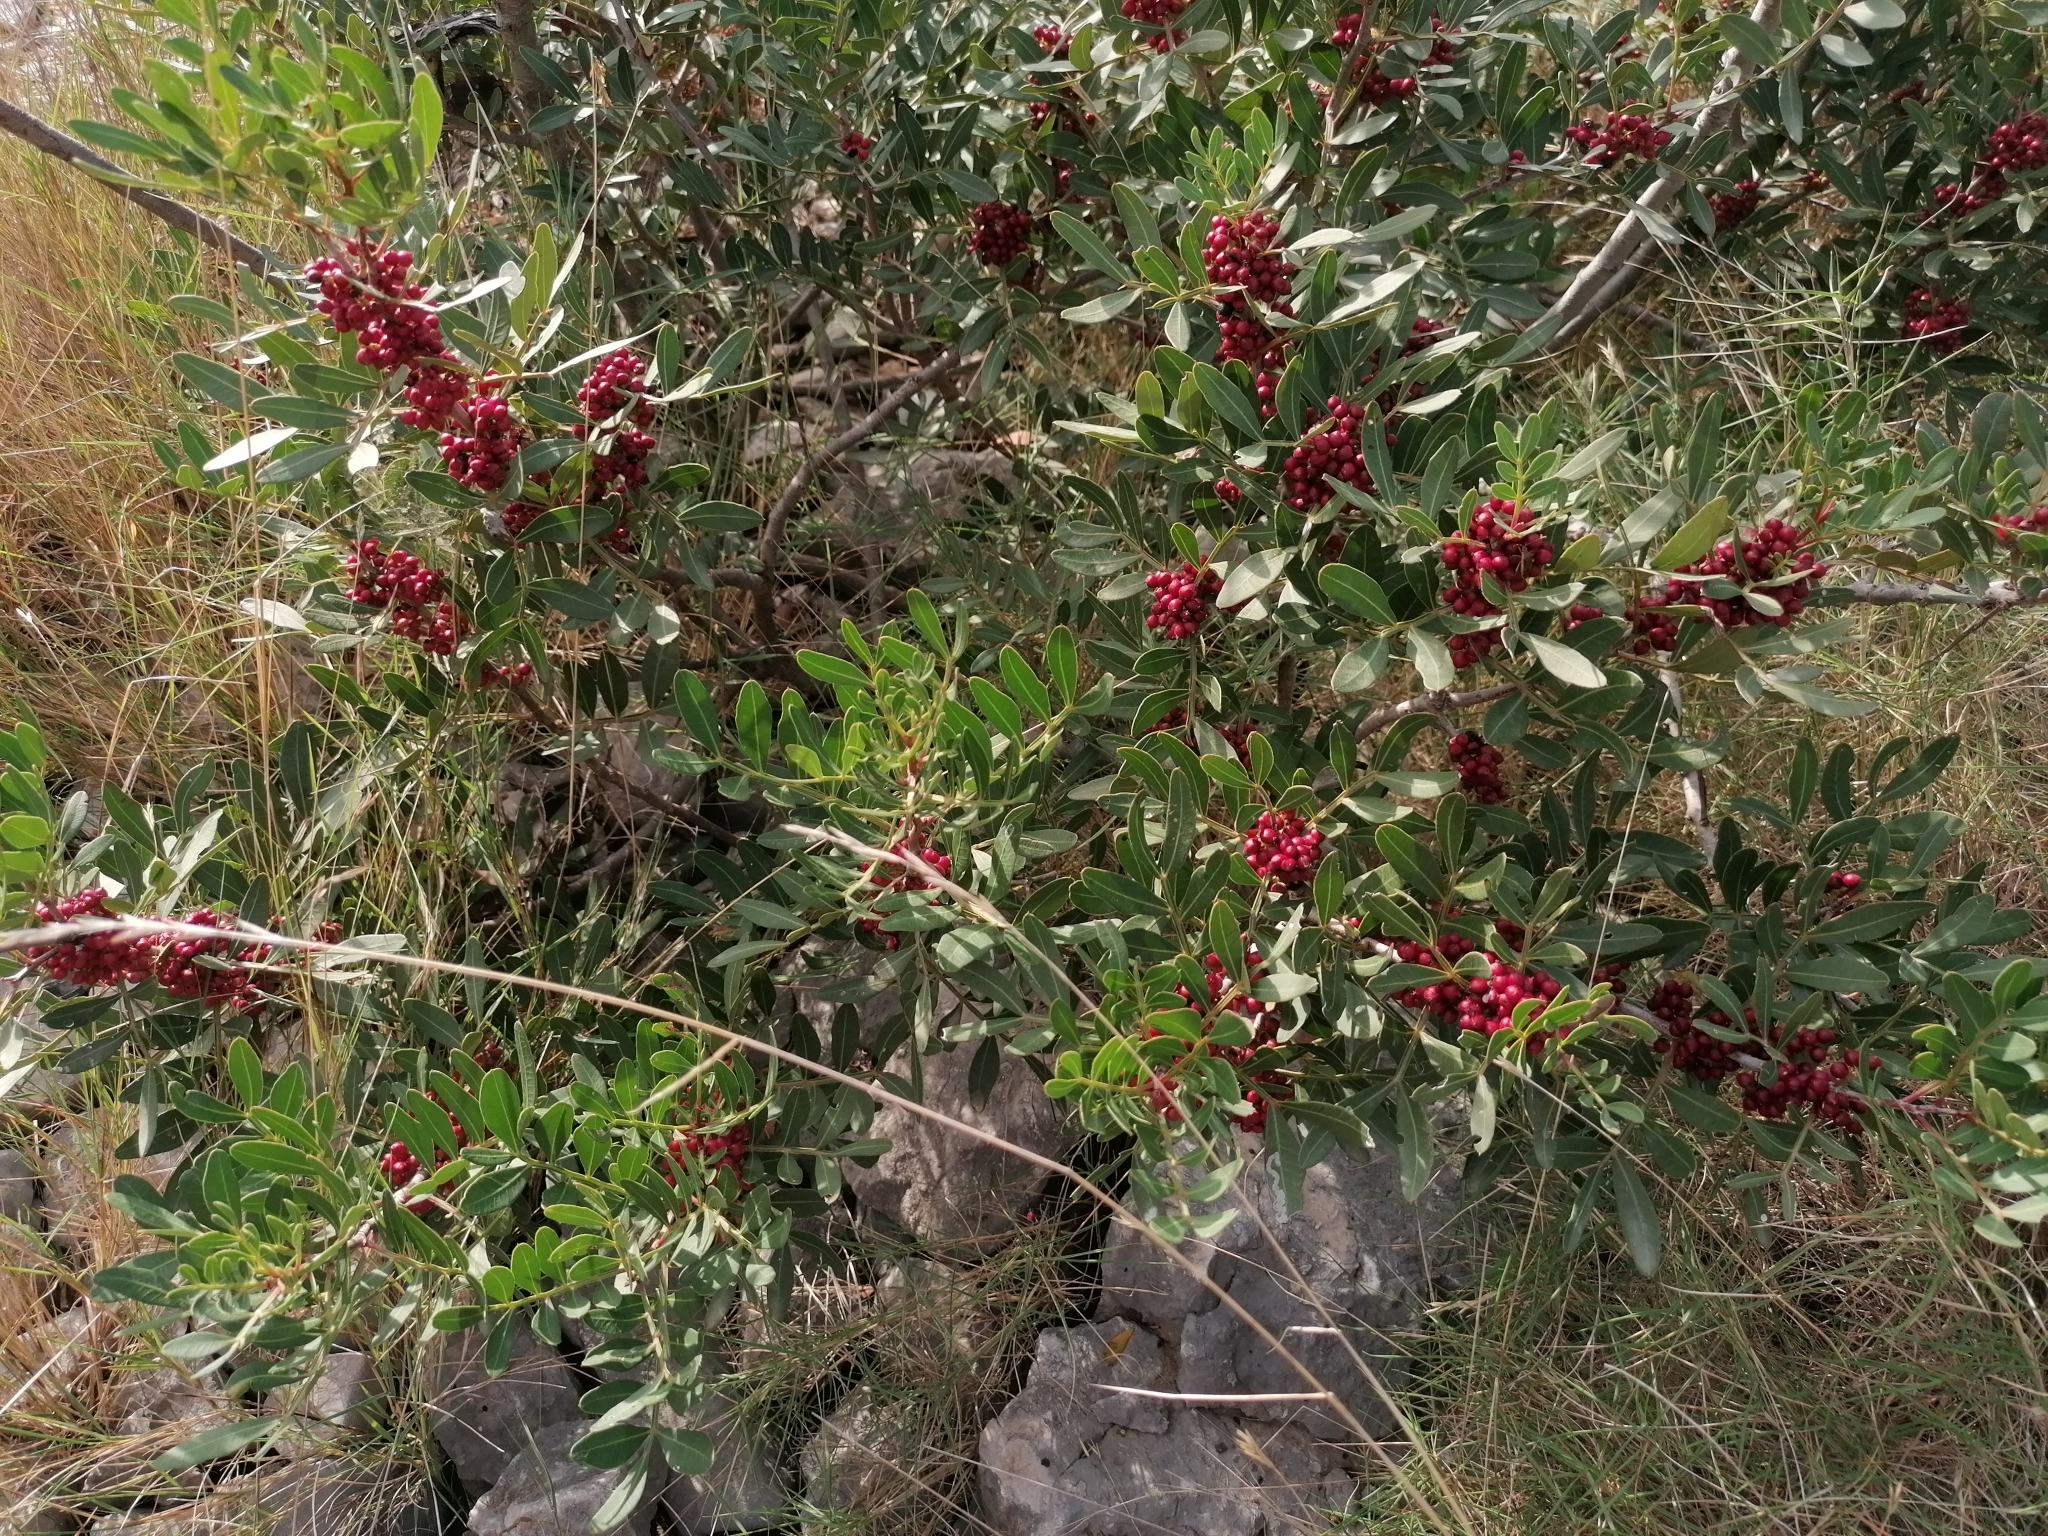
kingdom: Plantae
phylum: Tracheophyta
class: Magnoliopsida
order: Sapindales
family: Anacardiaceae
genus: Pistacia
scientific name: Pistacia lentiscus
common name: Lentisk
